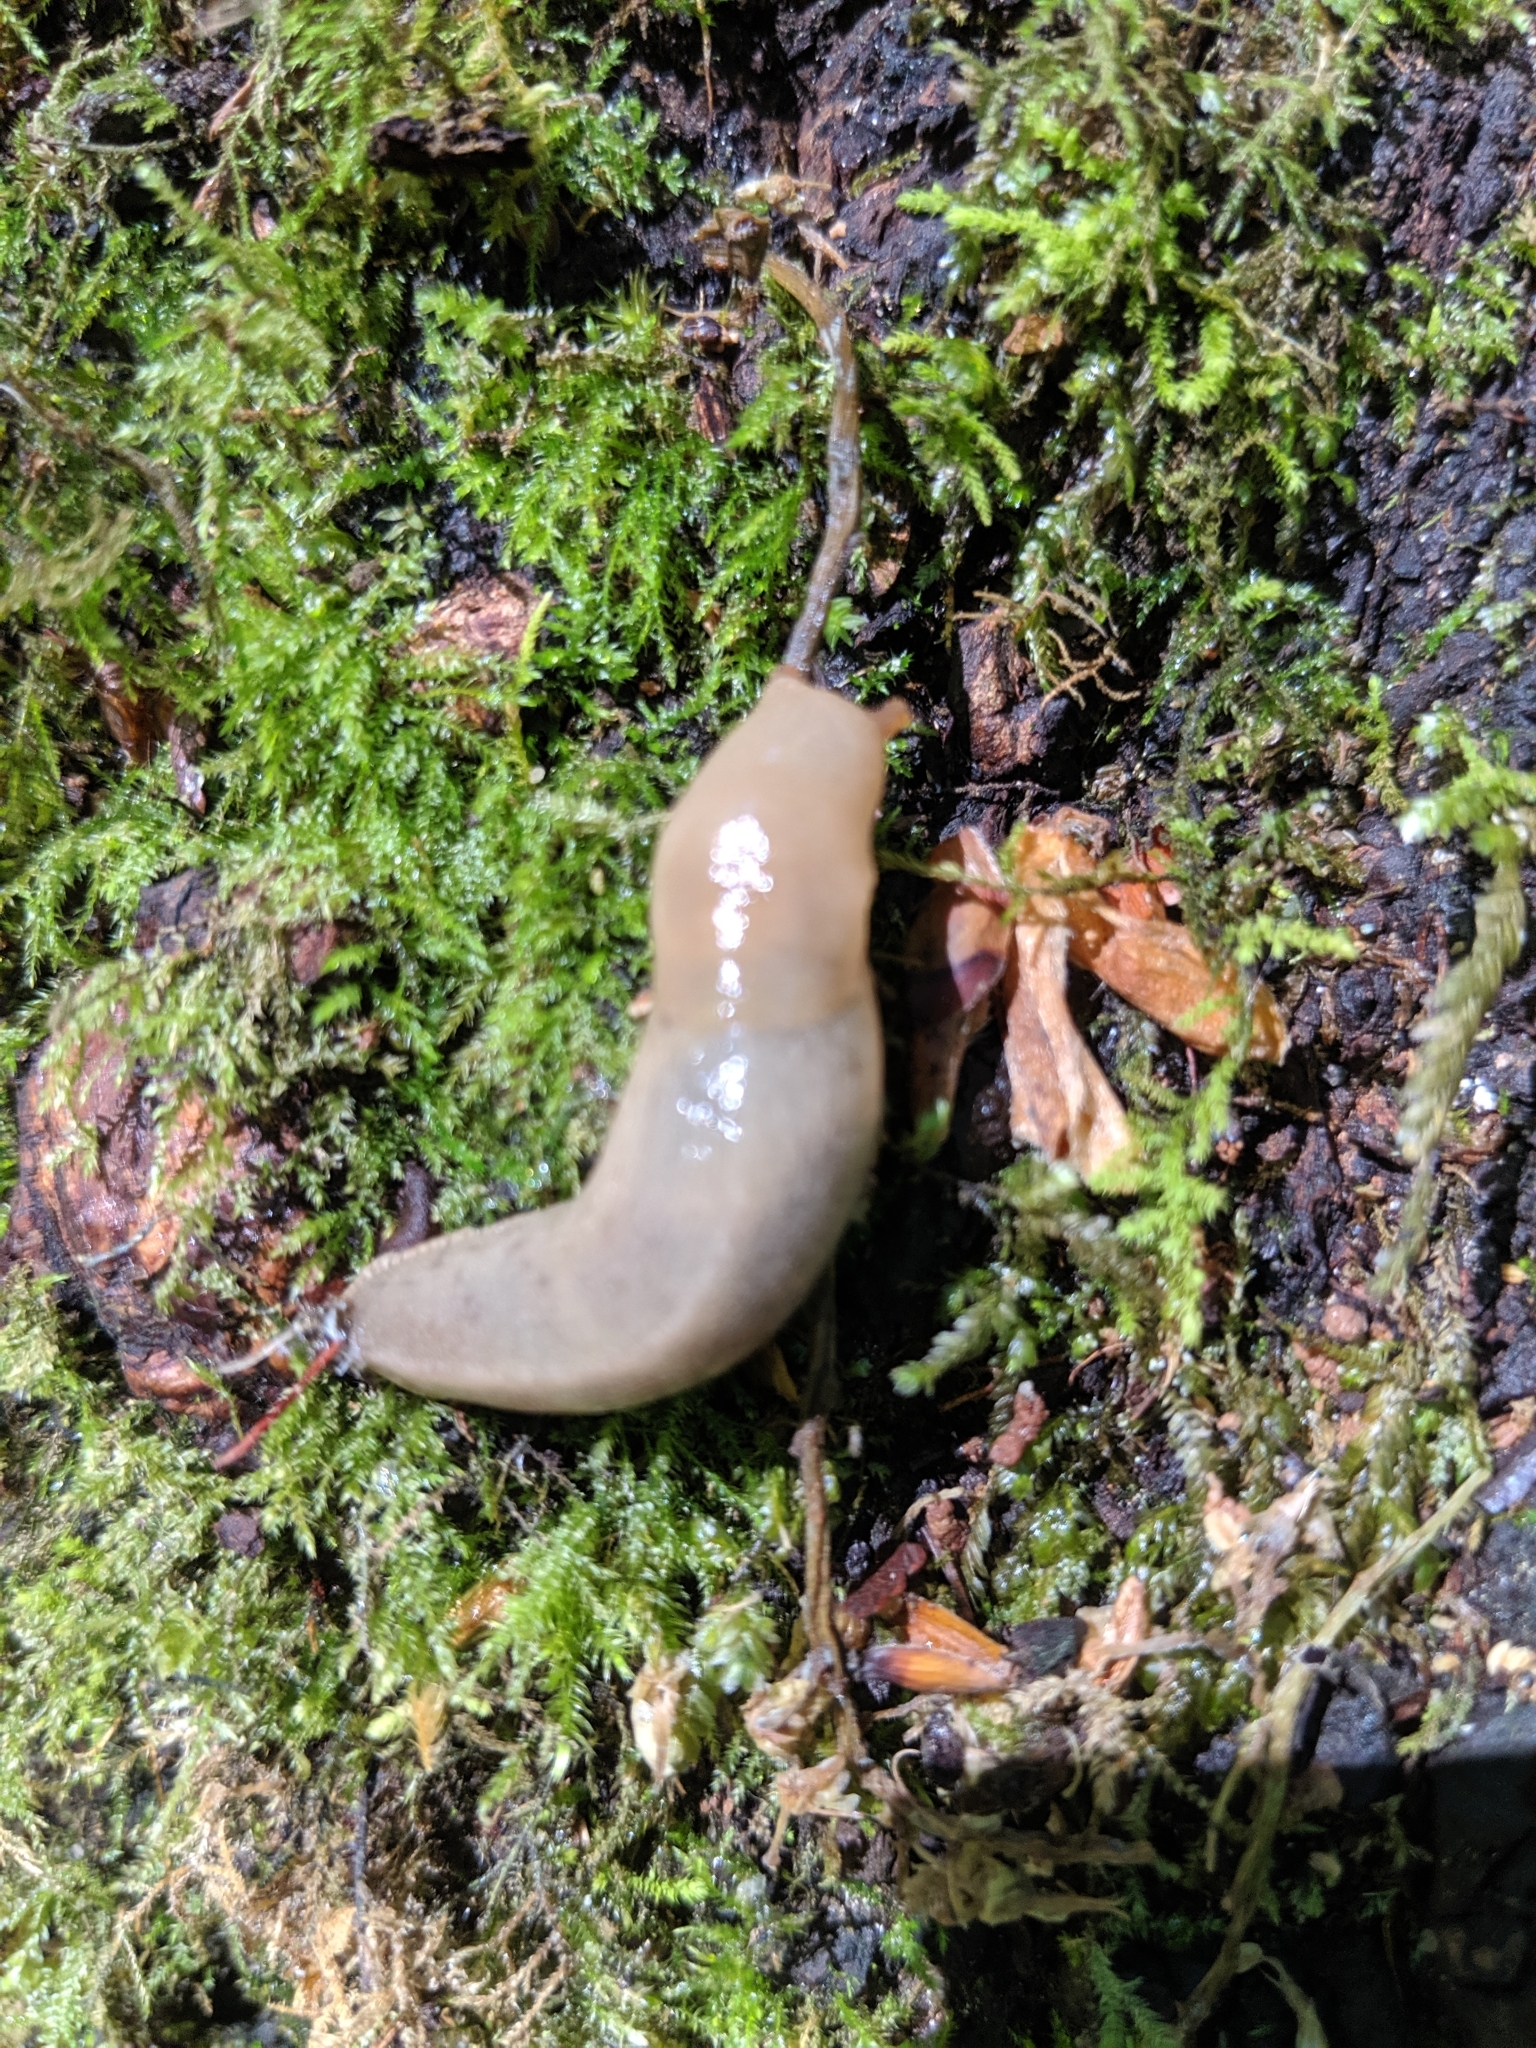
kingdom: Animalia
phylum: Mollusca
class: Gastropoda
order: Stylommatophora
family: Ariolimacidae
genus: Ariolimax
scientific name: Ariolimax columbianus
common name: Pacific banana slug
